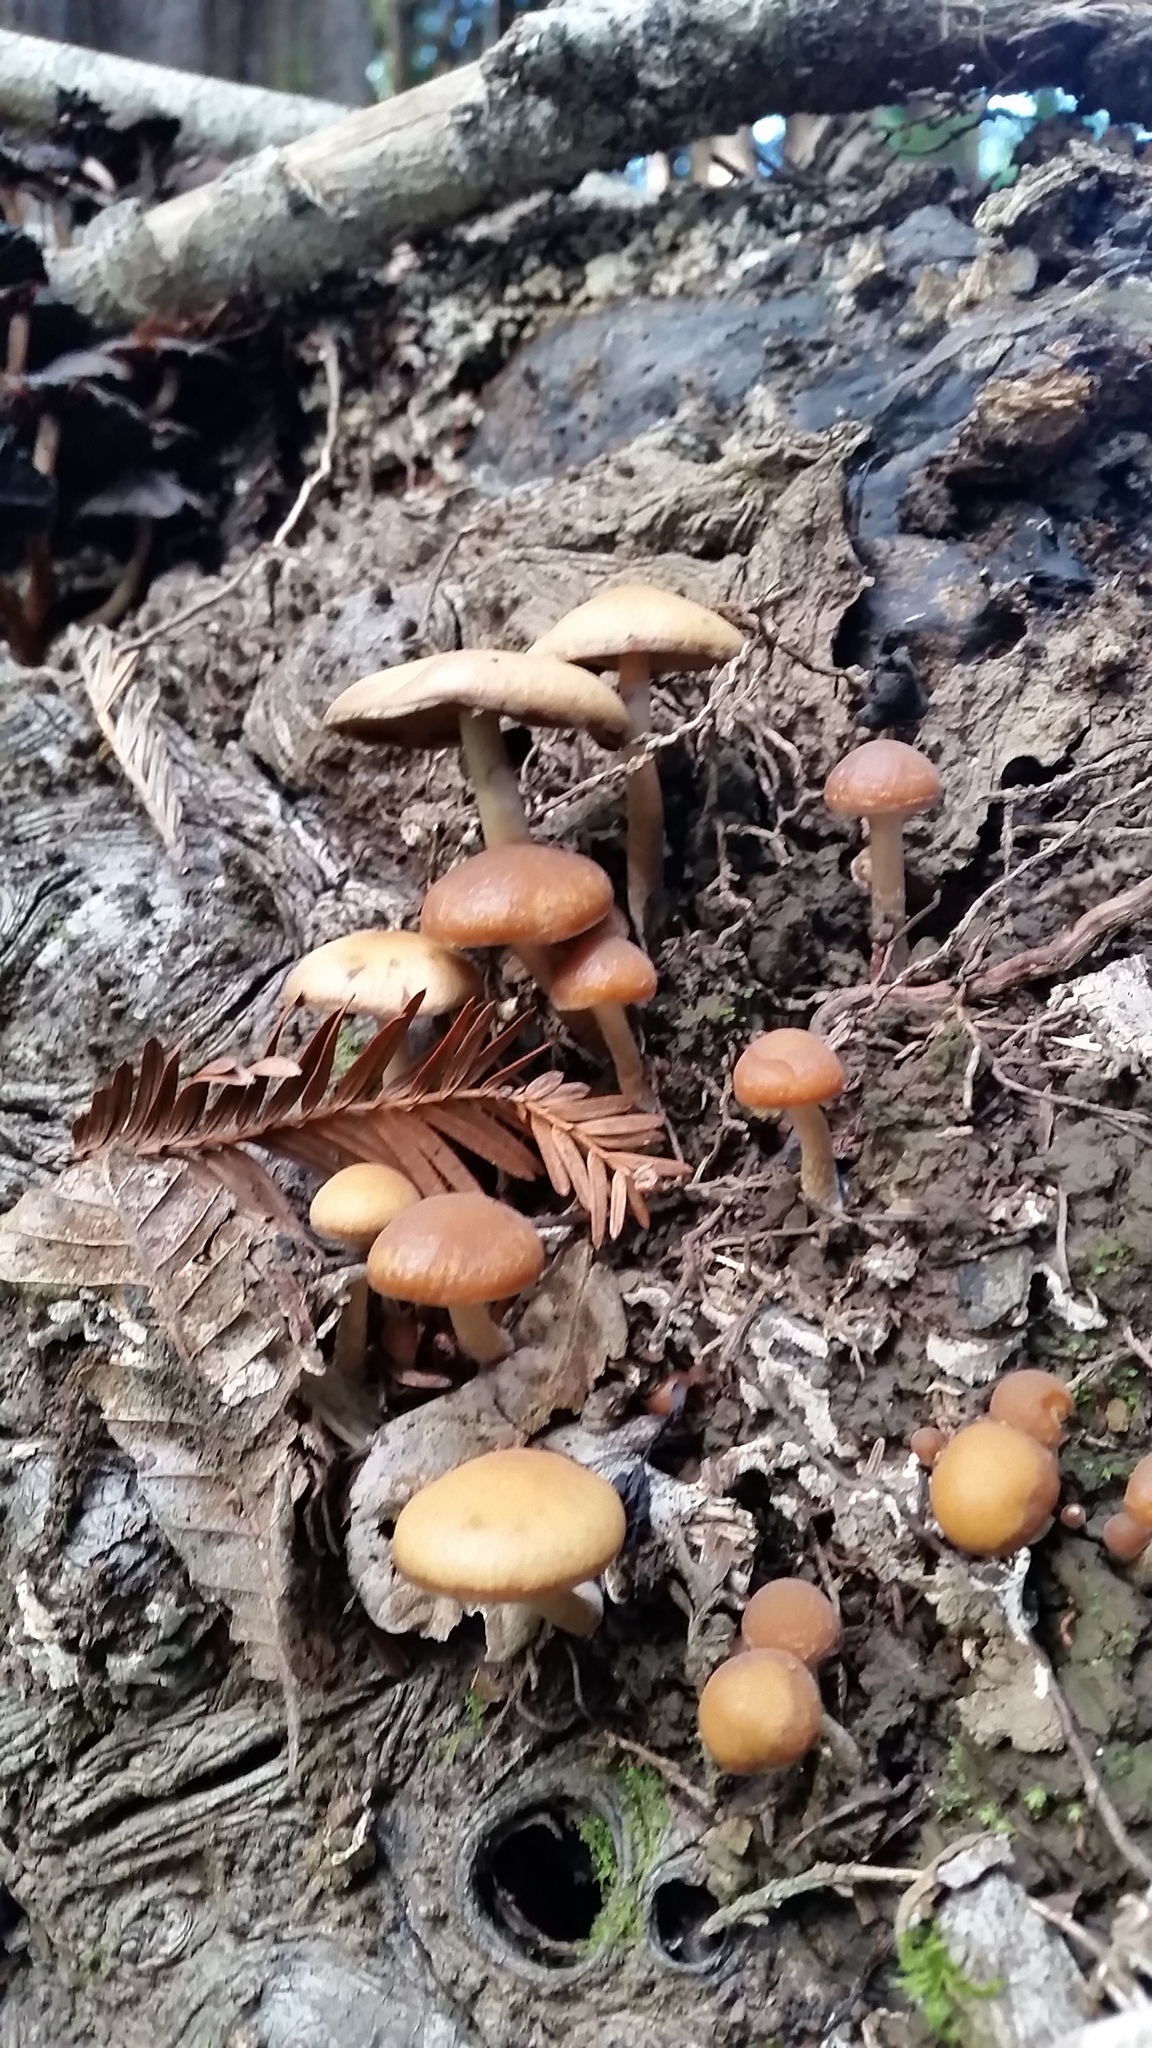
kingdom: Fungi
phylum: Basidiomycota
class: Agaricomycetes
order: Agaricales
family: Psathyrellaceae
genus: Psathyrella
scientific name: Psathyrella piluliformis
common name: Common stump brittlestem
